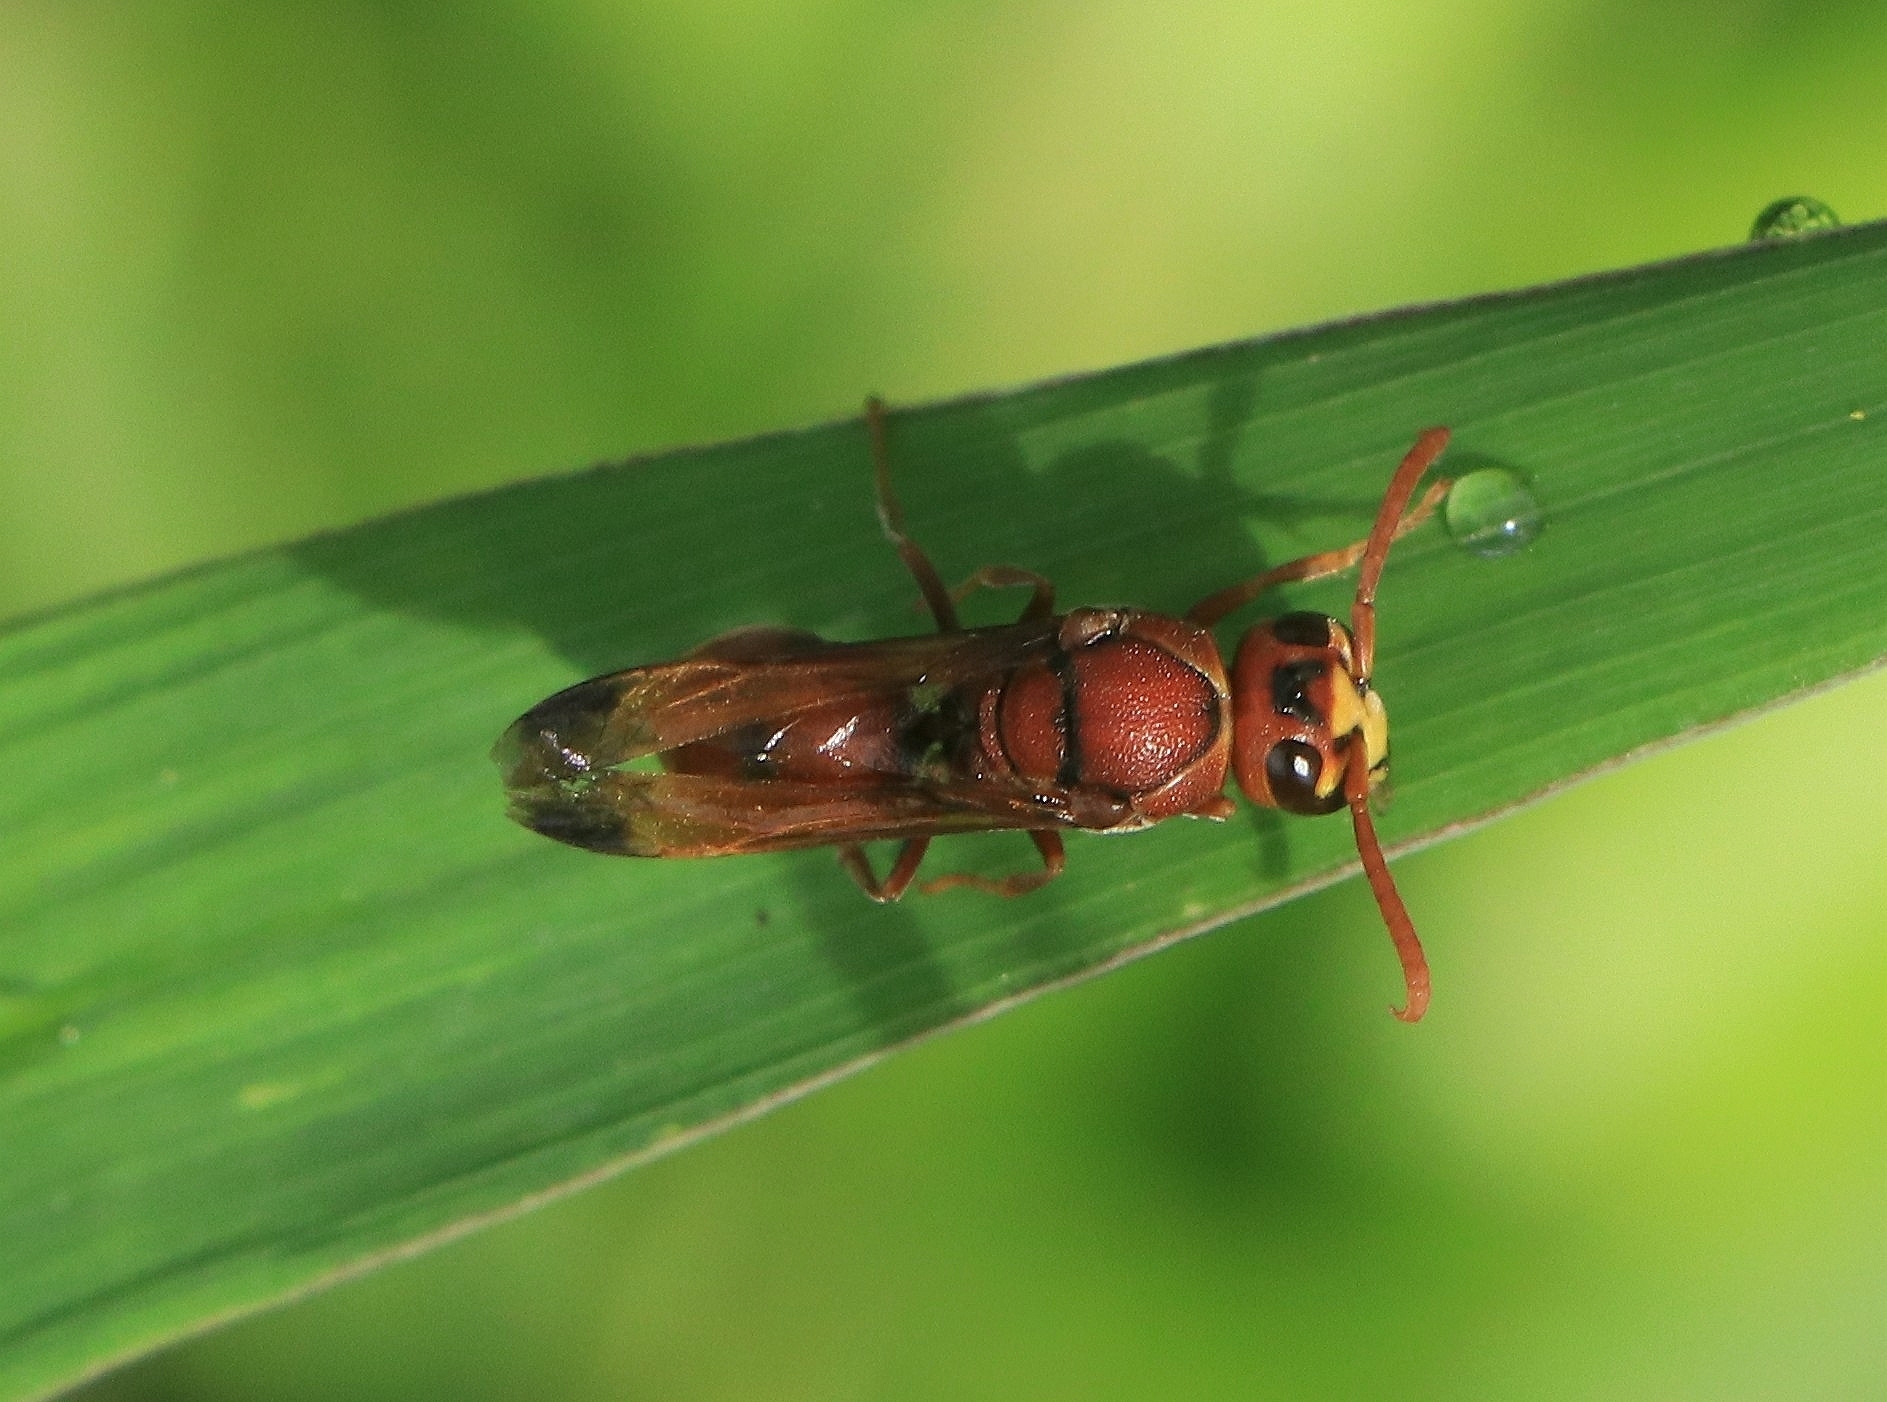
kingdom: Animalia
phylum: Arthropoda
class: Insecta
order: Hymenoptera
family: Eumenidae
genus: Antodynerus
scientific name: Antodynerus limbatus
